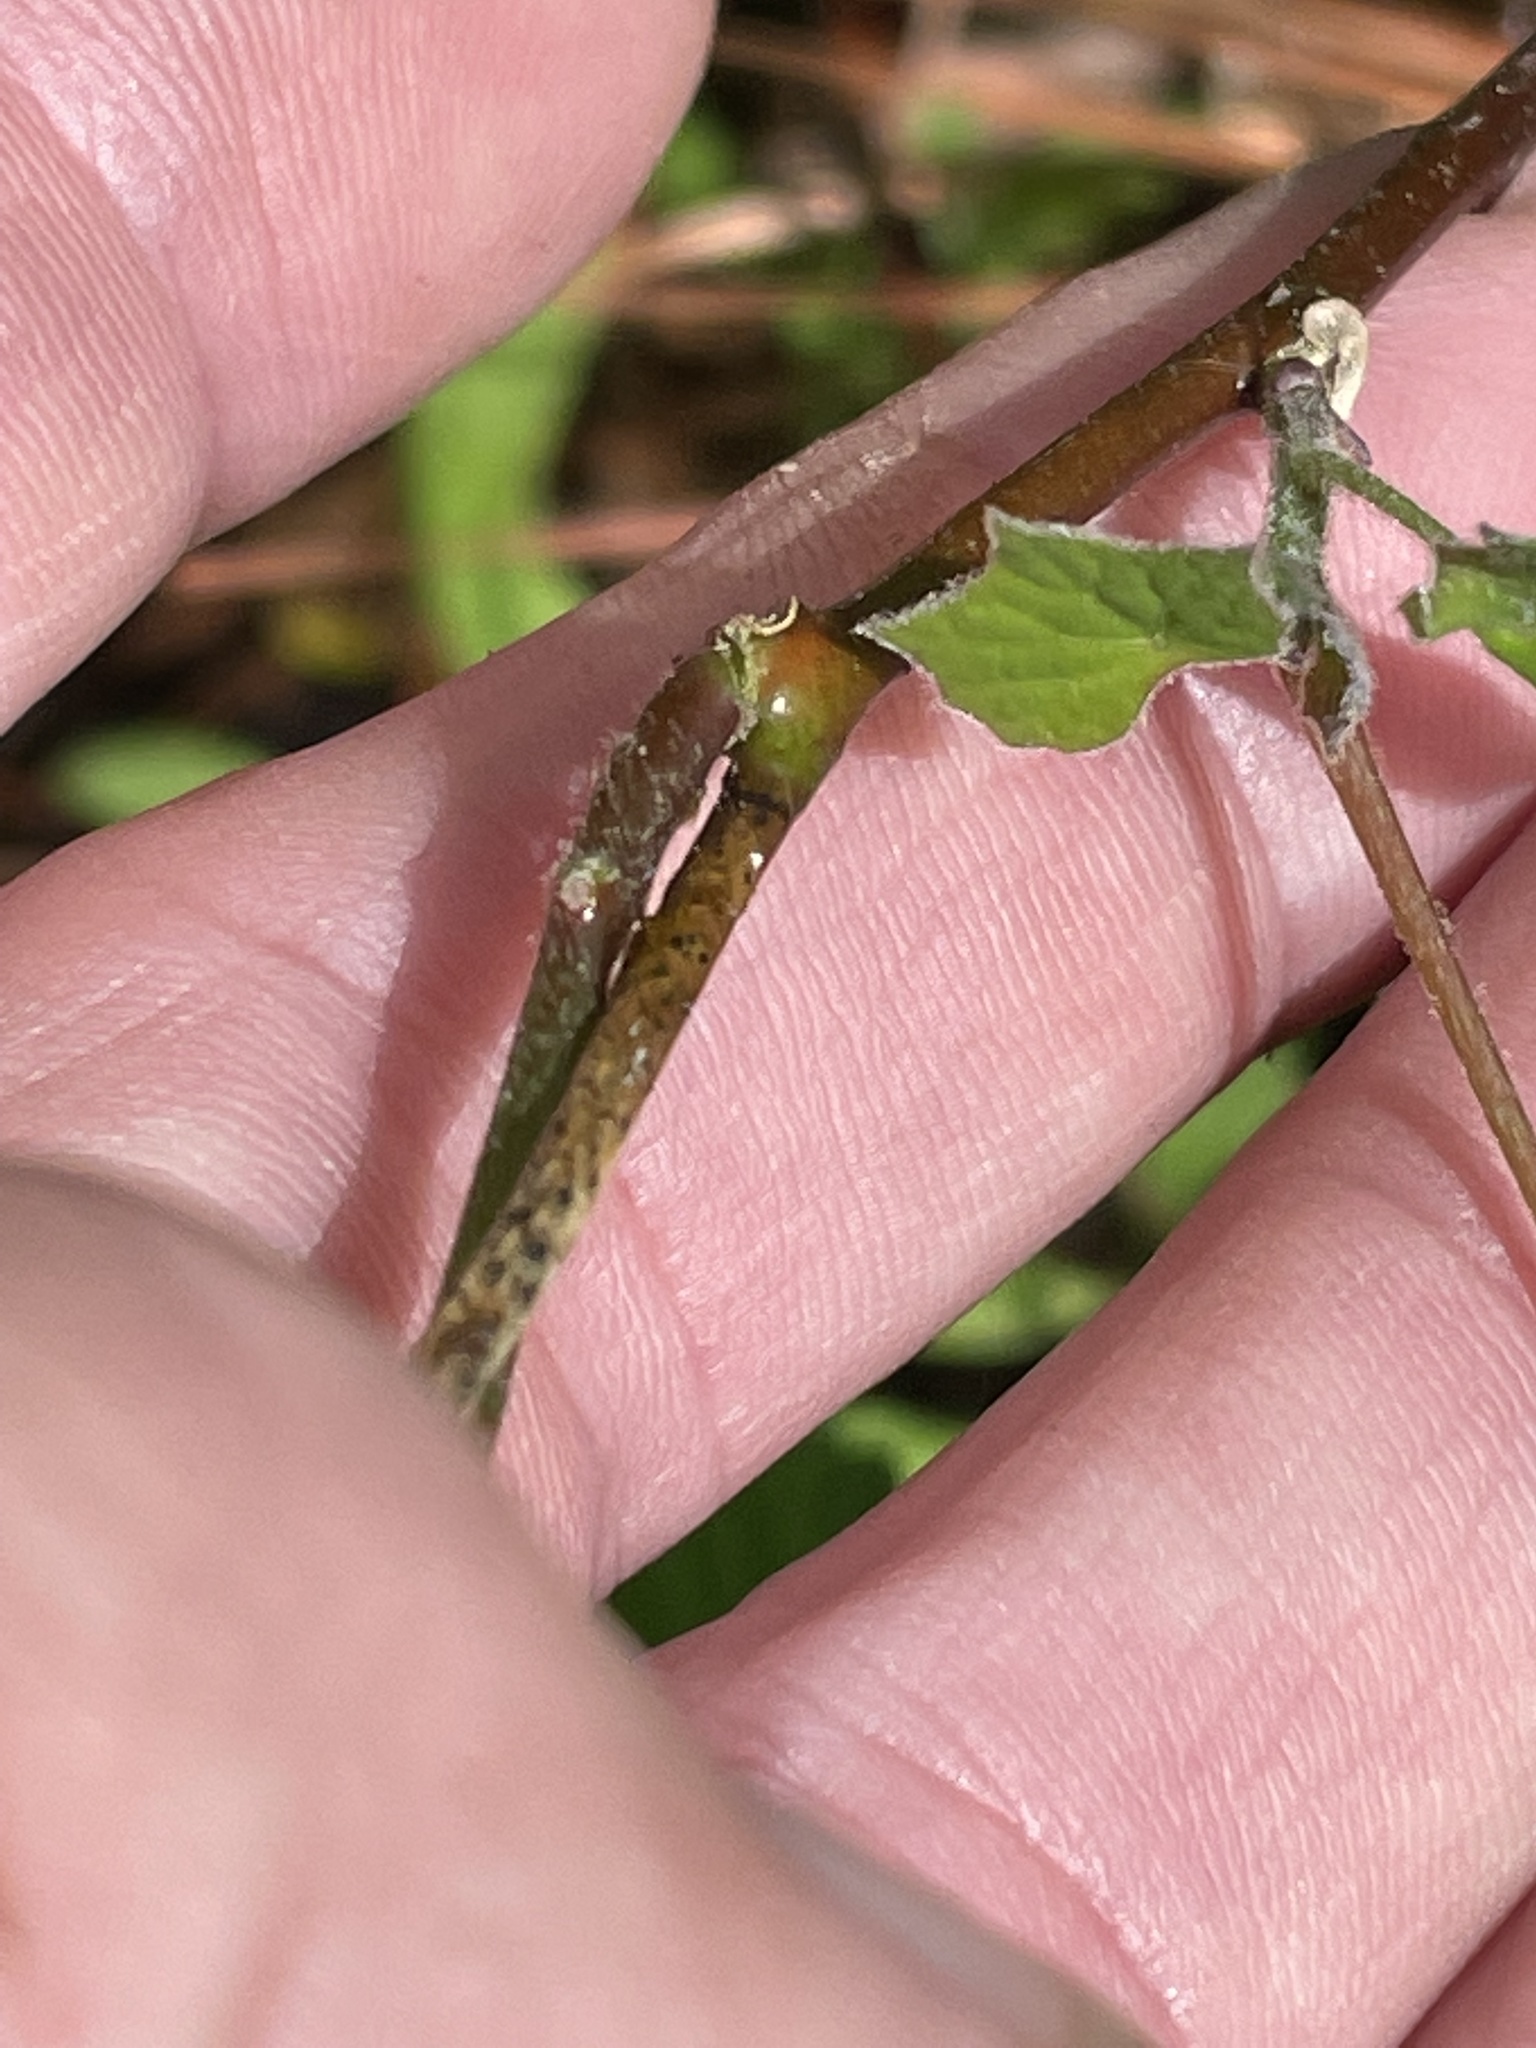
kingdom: Plantae
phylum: Tracheophyta
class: Magnoliopsida
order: Ranunculales
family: Menispermaceae
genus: Menispermum
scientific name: Menispermum canadense
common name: Moonseed
